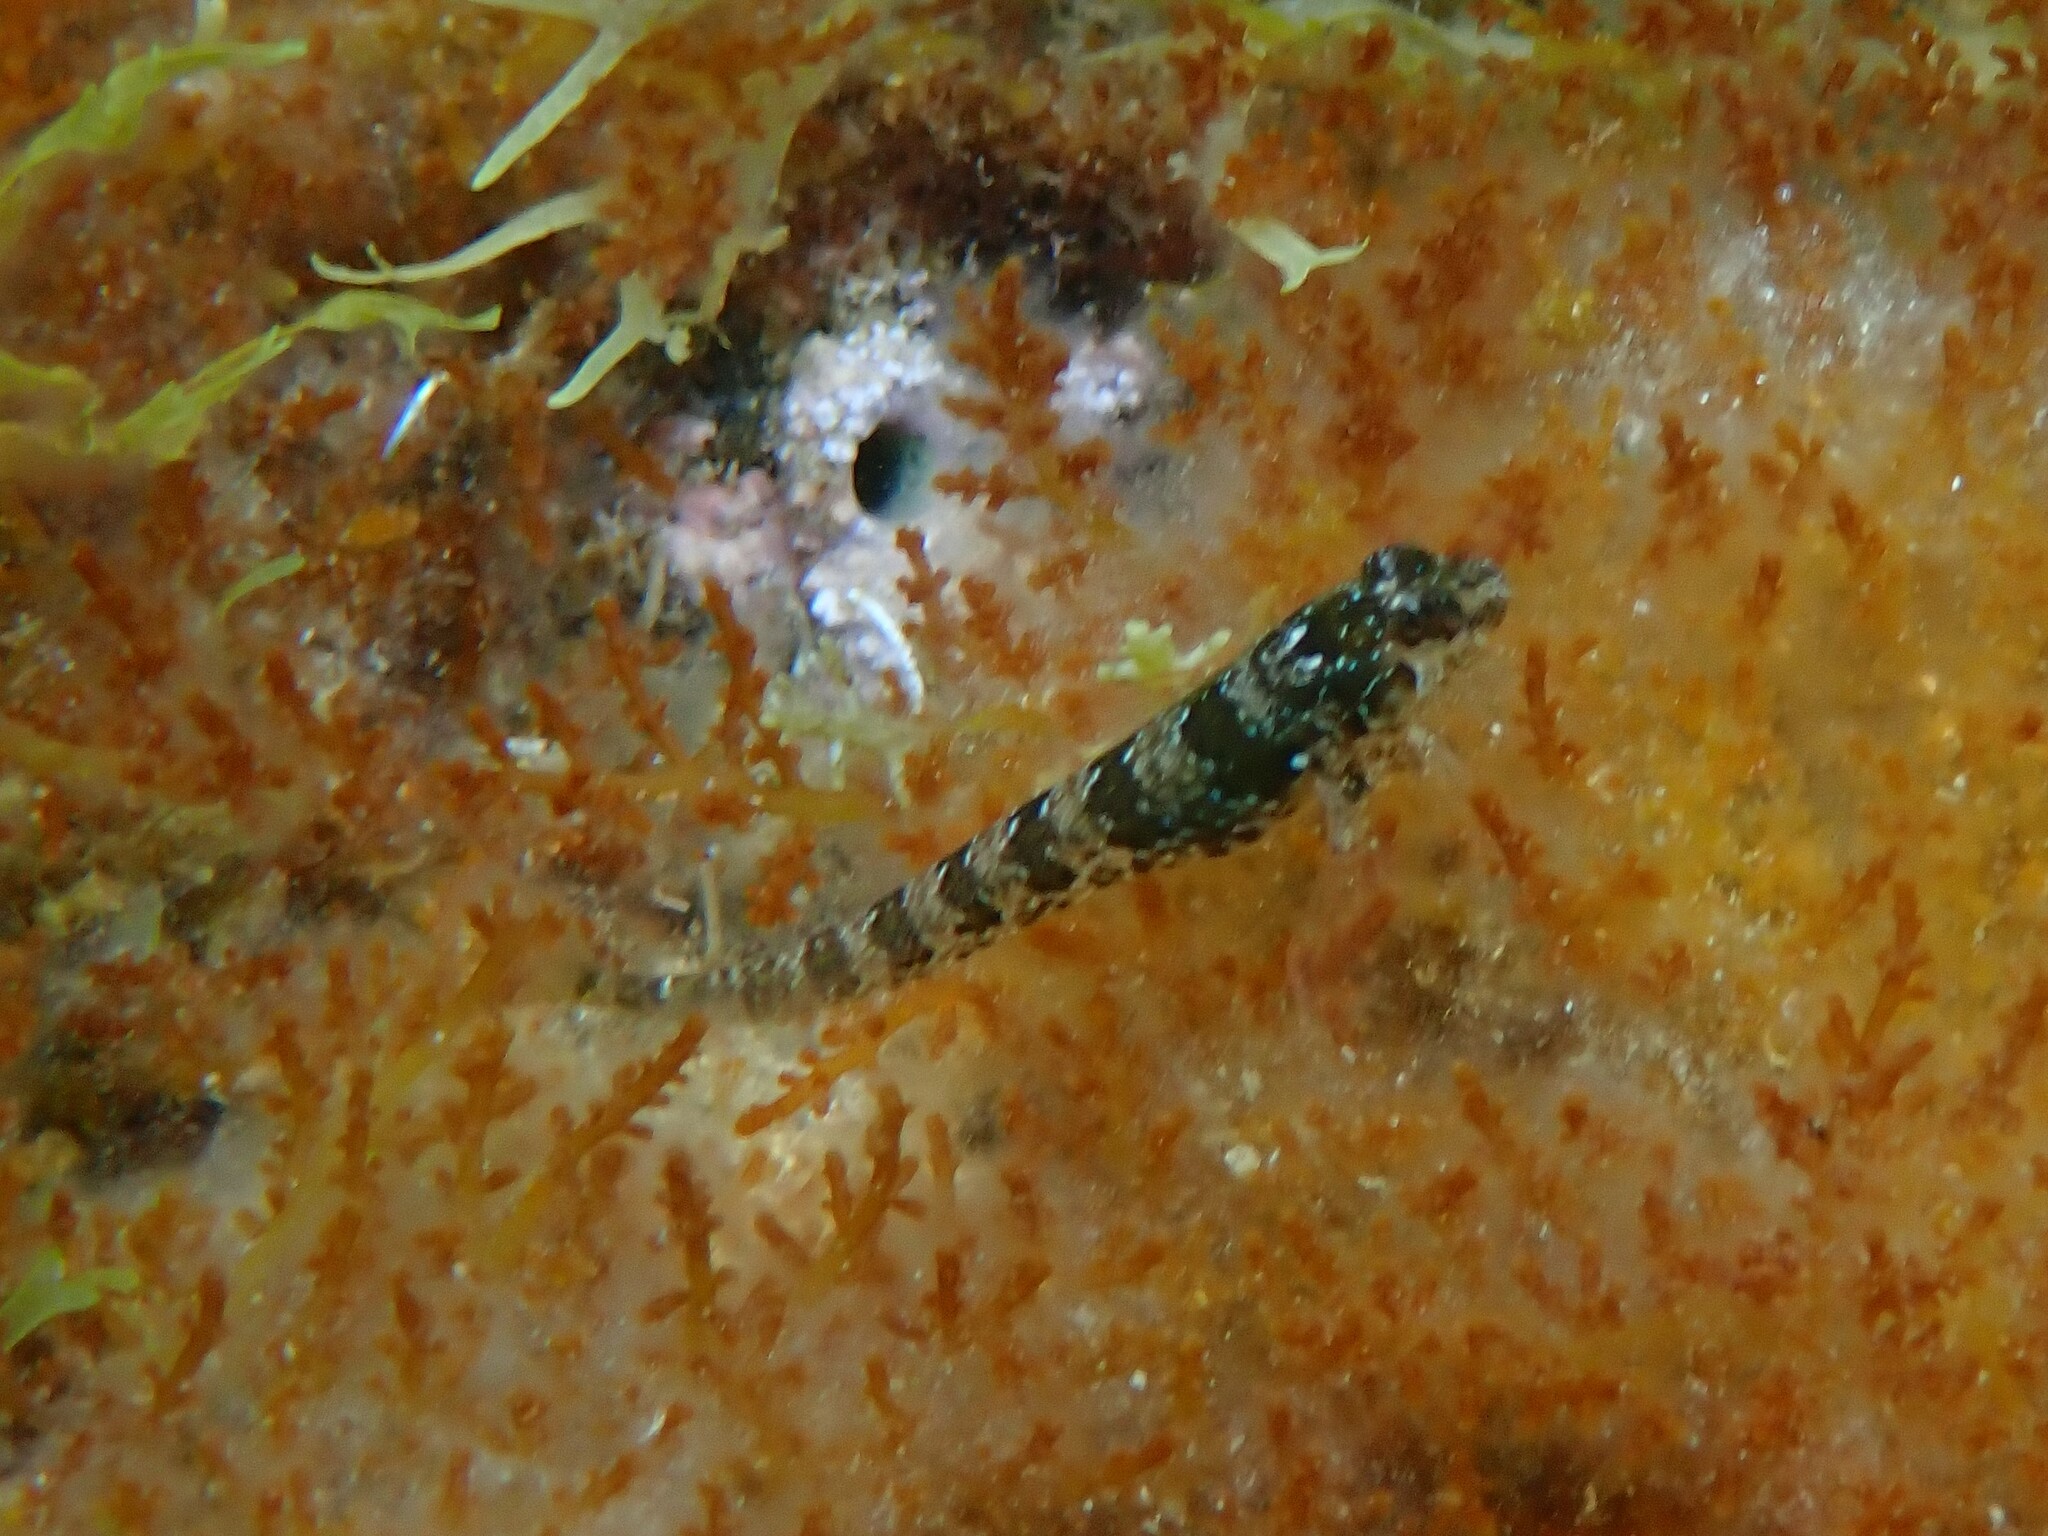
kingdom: Animalia
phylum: Chordata
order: Perciformes
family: Blenniidae
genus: Parablennius
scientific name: Parablennius incognitus
